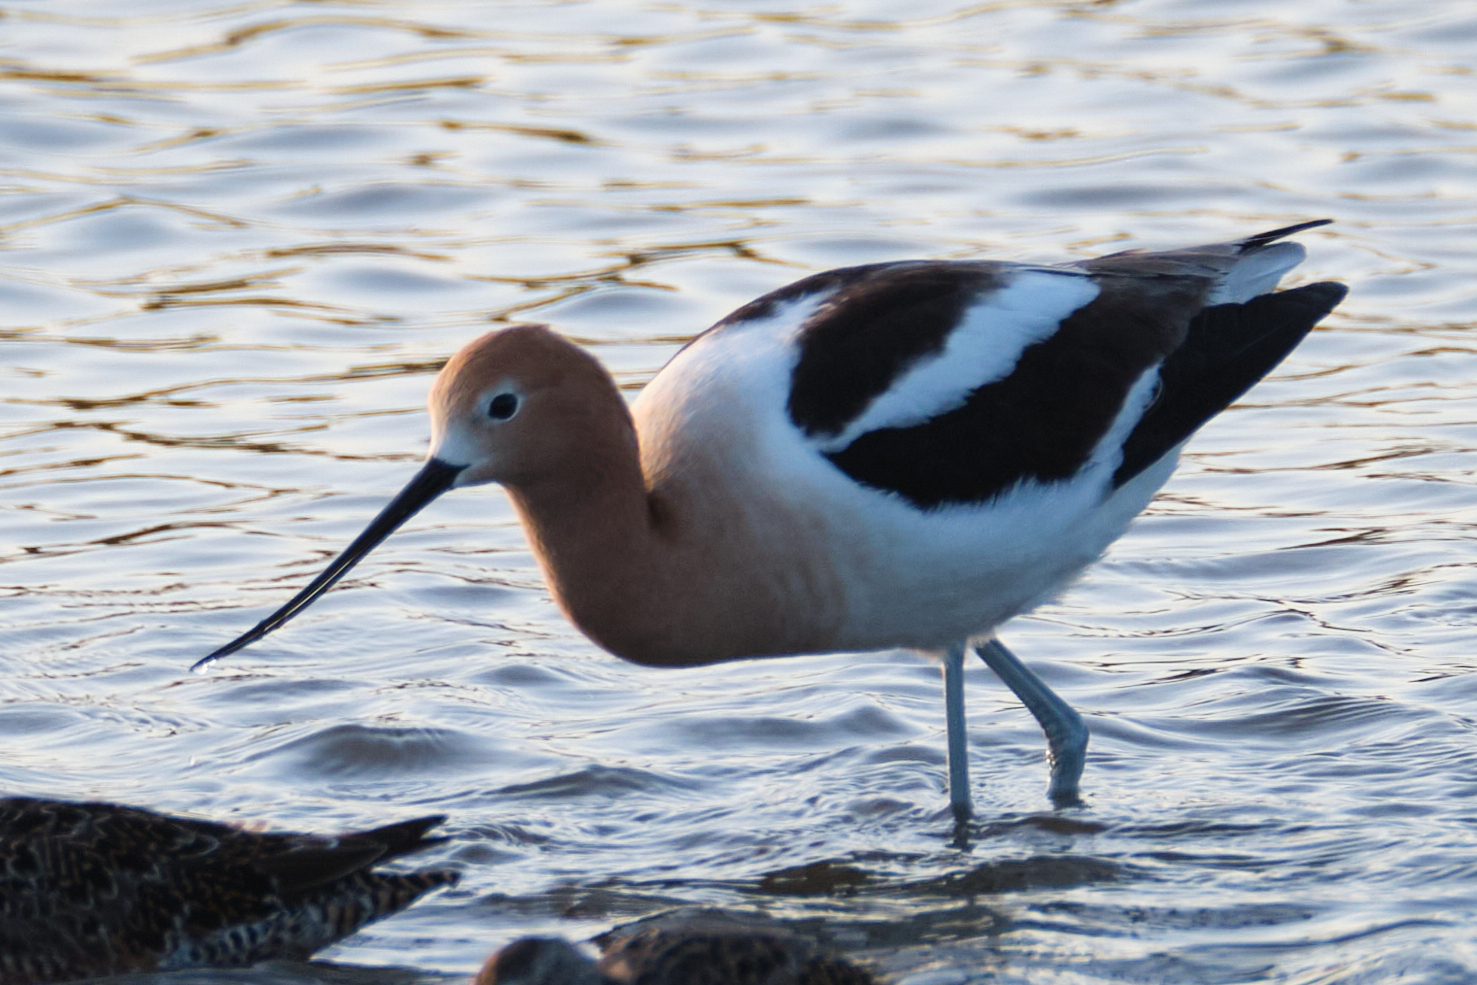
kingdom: Animalia
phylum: Chordata
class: Aves
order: Charadriiformes
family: Recurvirostridae
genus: Recurvirostra
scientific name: Recurvirostra americana
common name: American avocet
